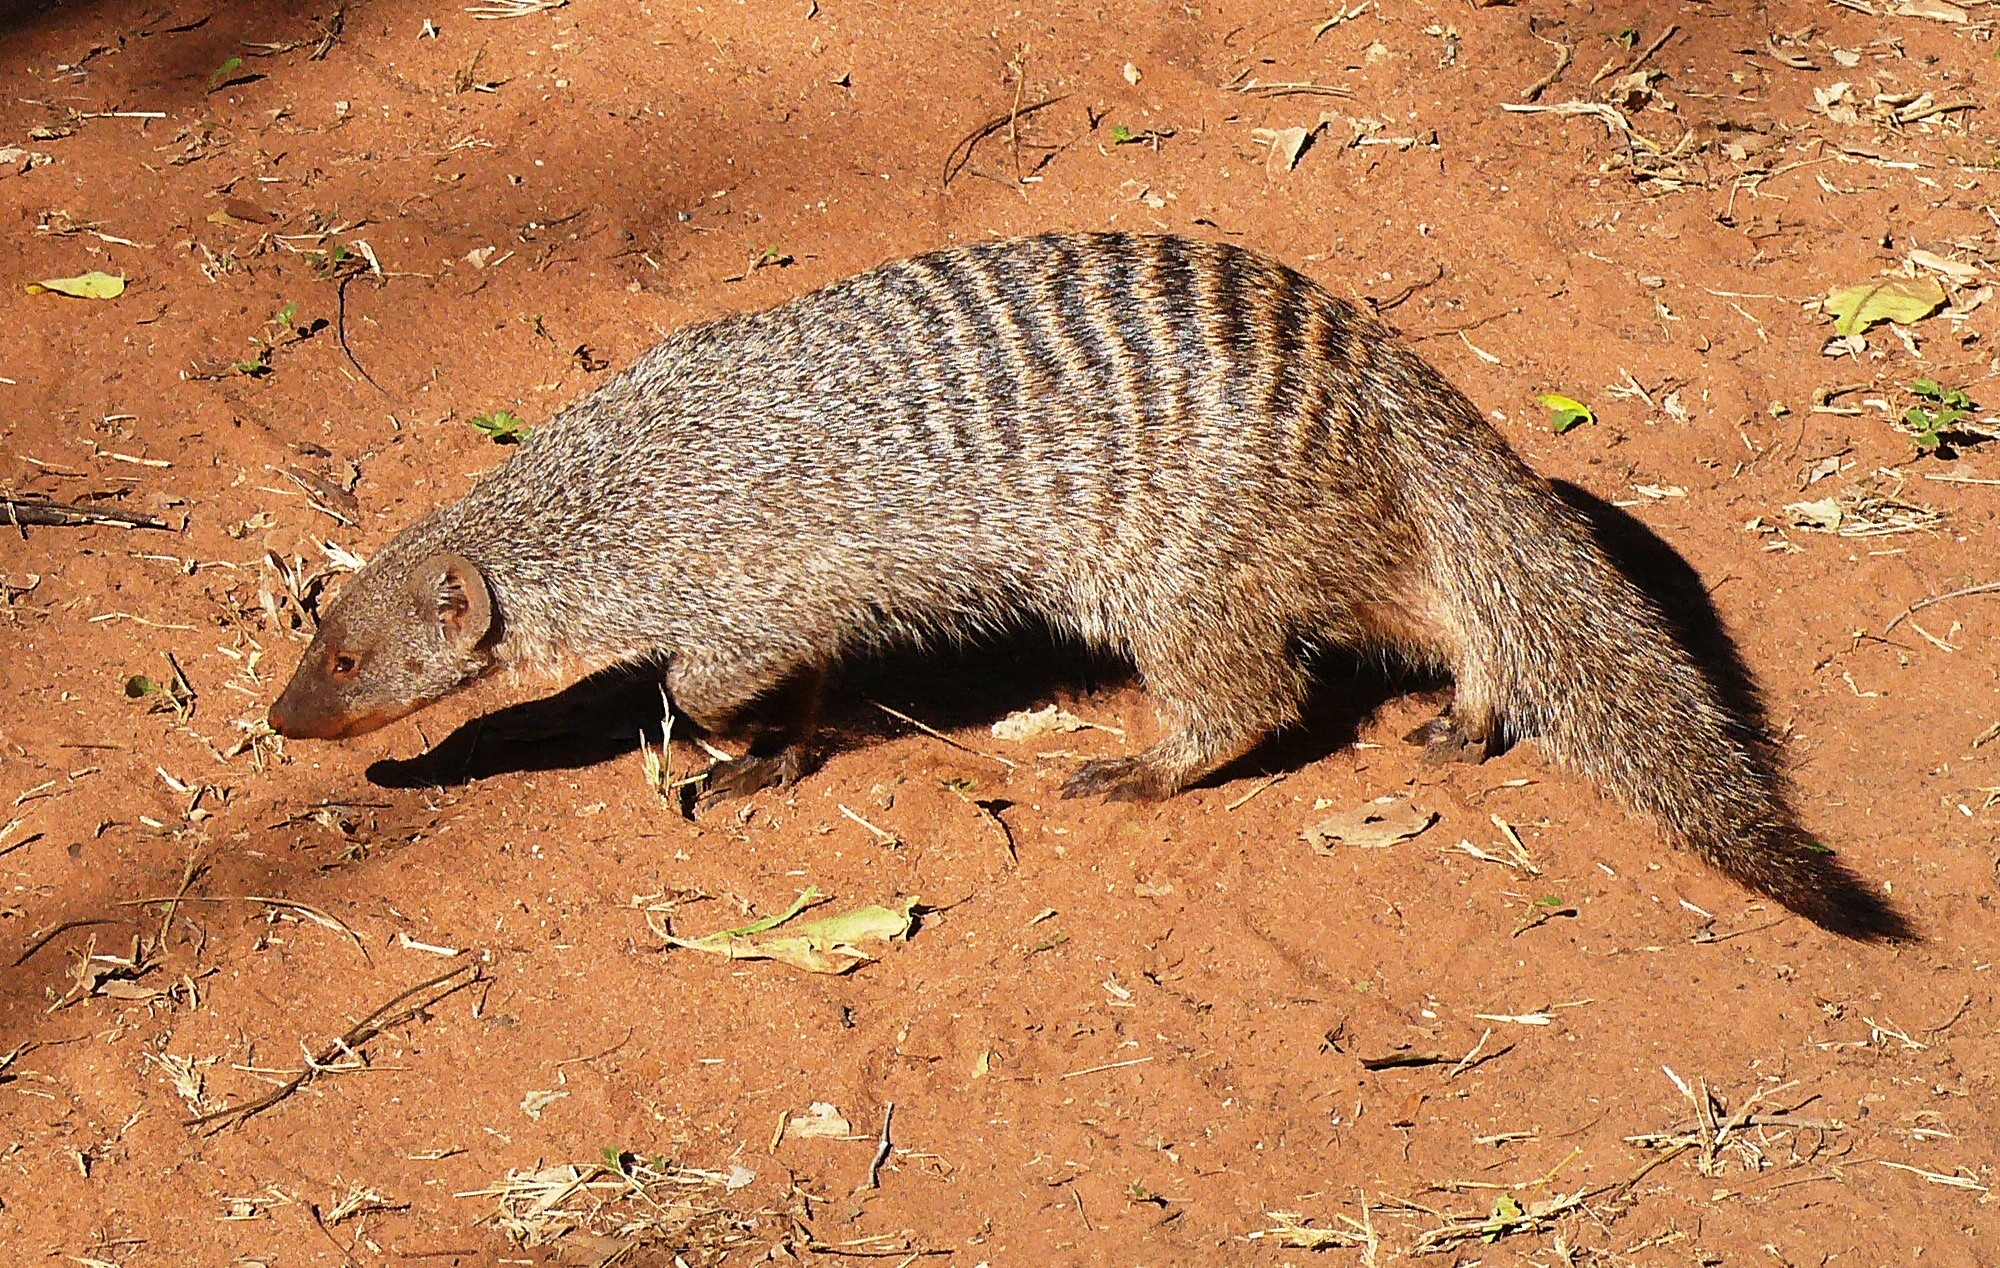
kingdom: Animalia
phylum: Chordata
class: Mammalia
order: Carnivora
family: Herpestidae
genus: Mungos
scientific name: Mungos mungo
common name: Banded mongoose
